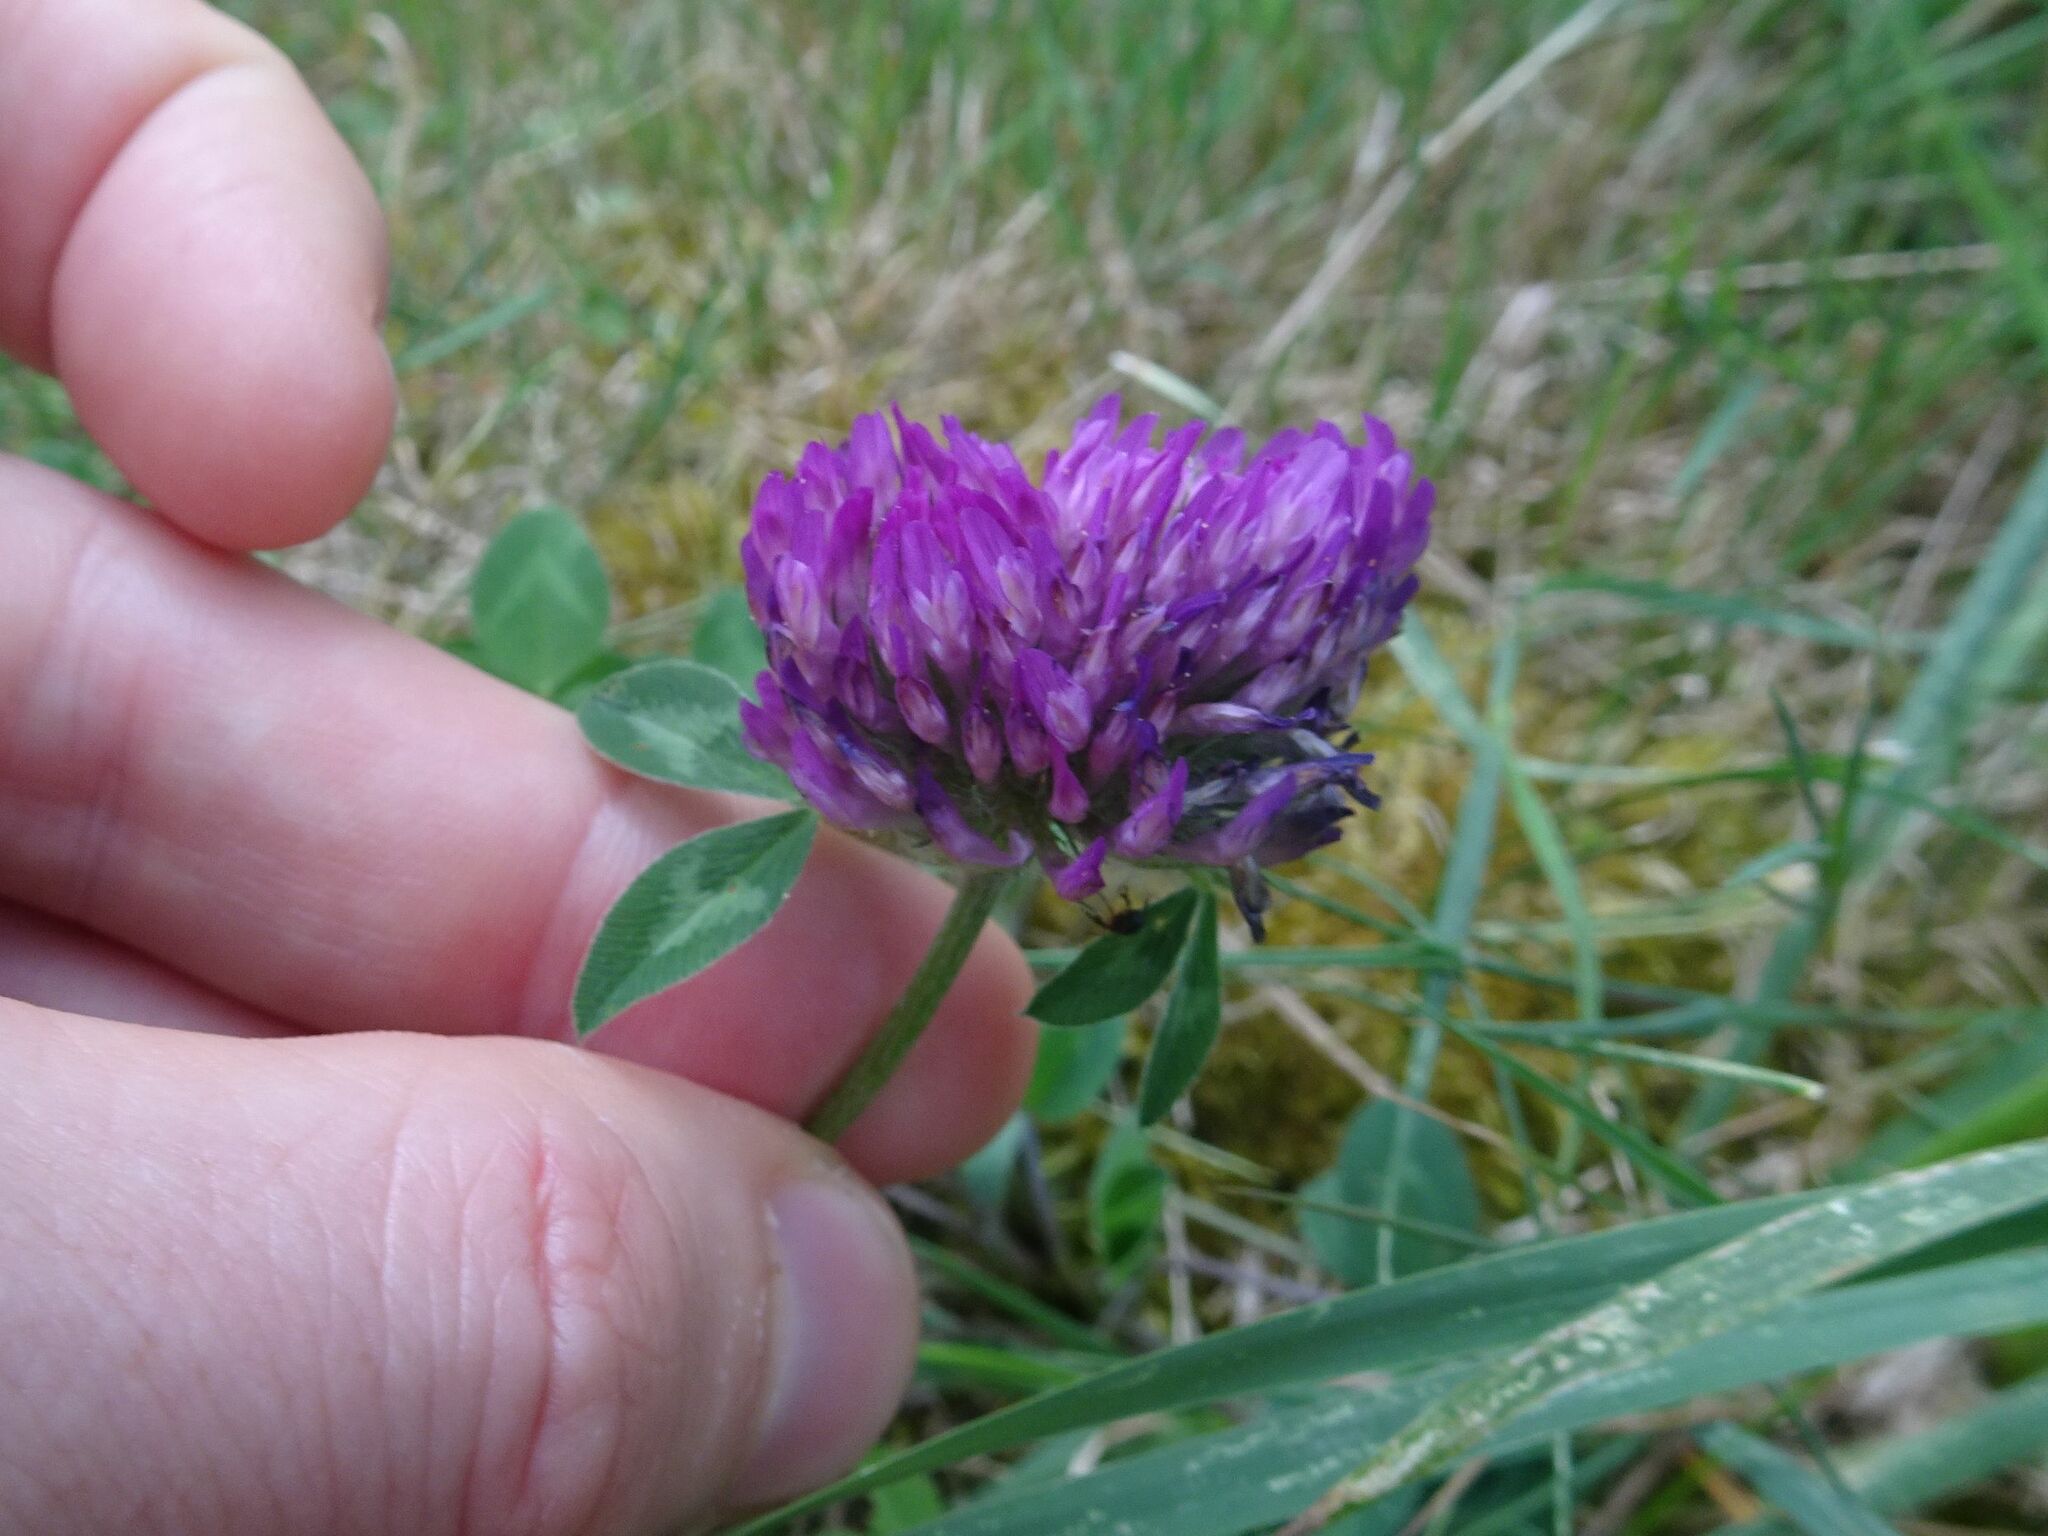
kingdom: Plantae
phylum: Tracheophyta
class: Magnoliopsida
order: Fabales
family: Fabaceae
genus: Trifolium
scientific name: Trifolium pratense
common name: Red clover
